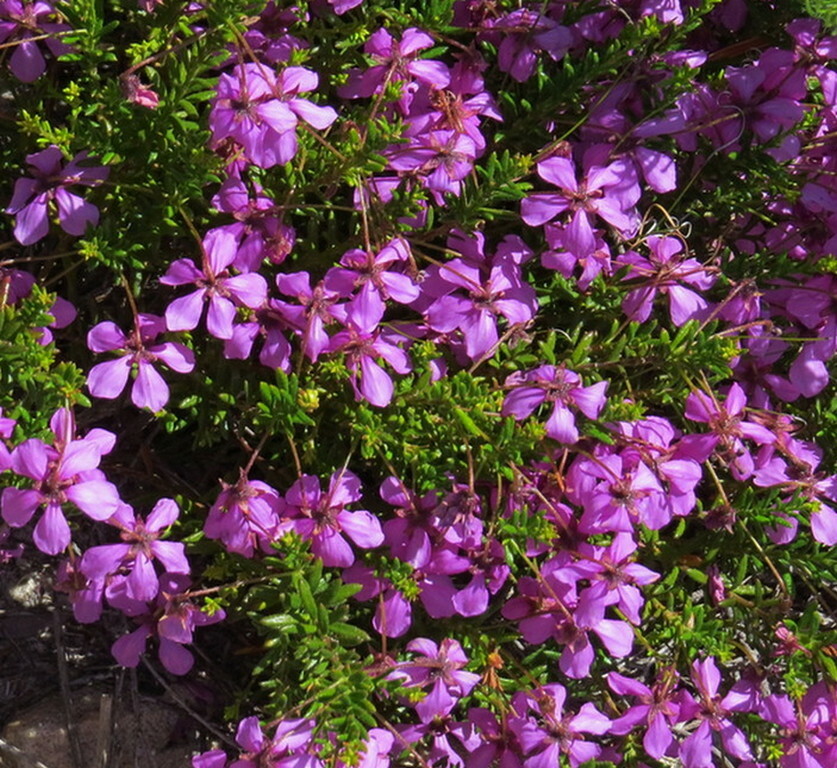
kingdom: Plantae
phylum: Tracheophyta
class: Magnoliopsida
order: Oxalidales
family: Elaeocarpaceae
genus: Tetratheca
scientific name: Tetratheca confertifolia
